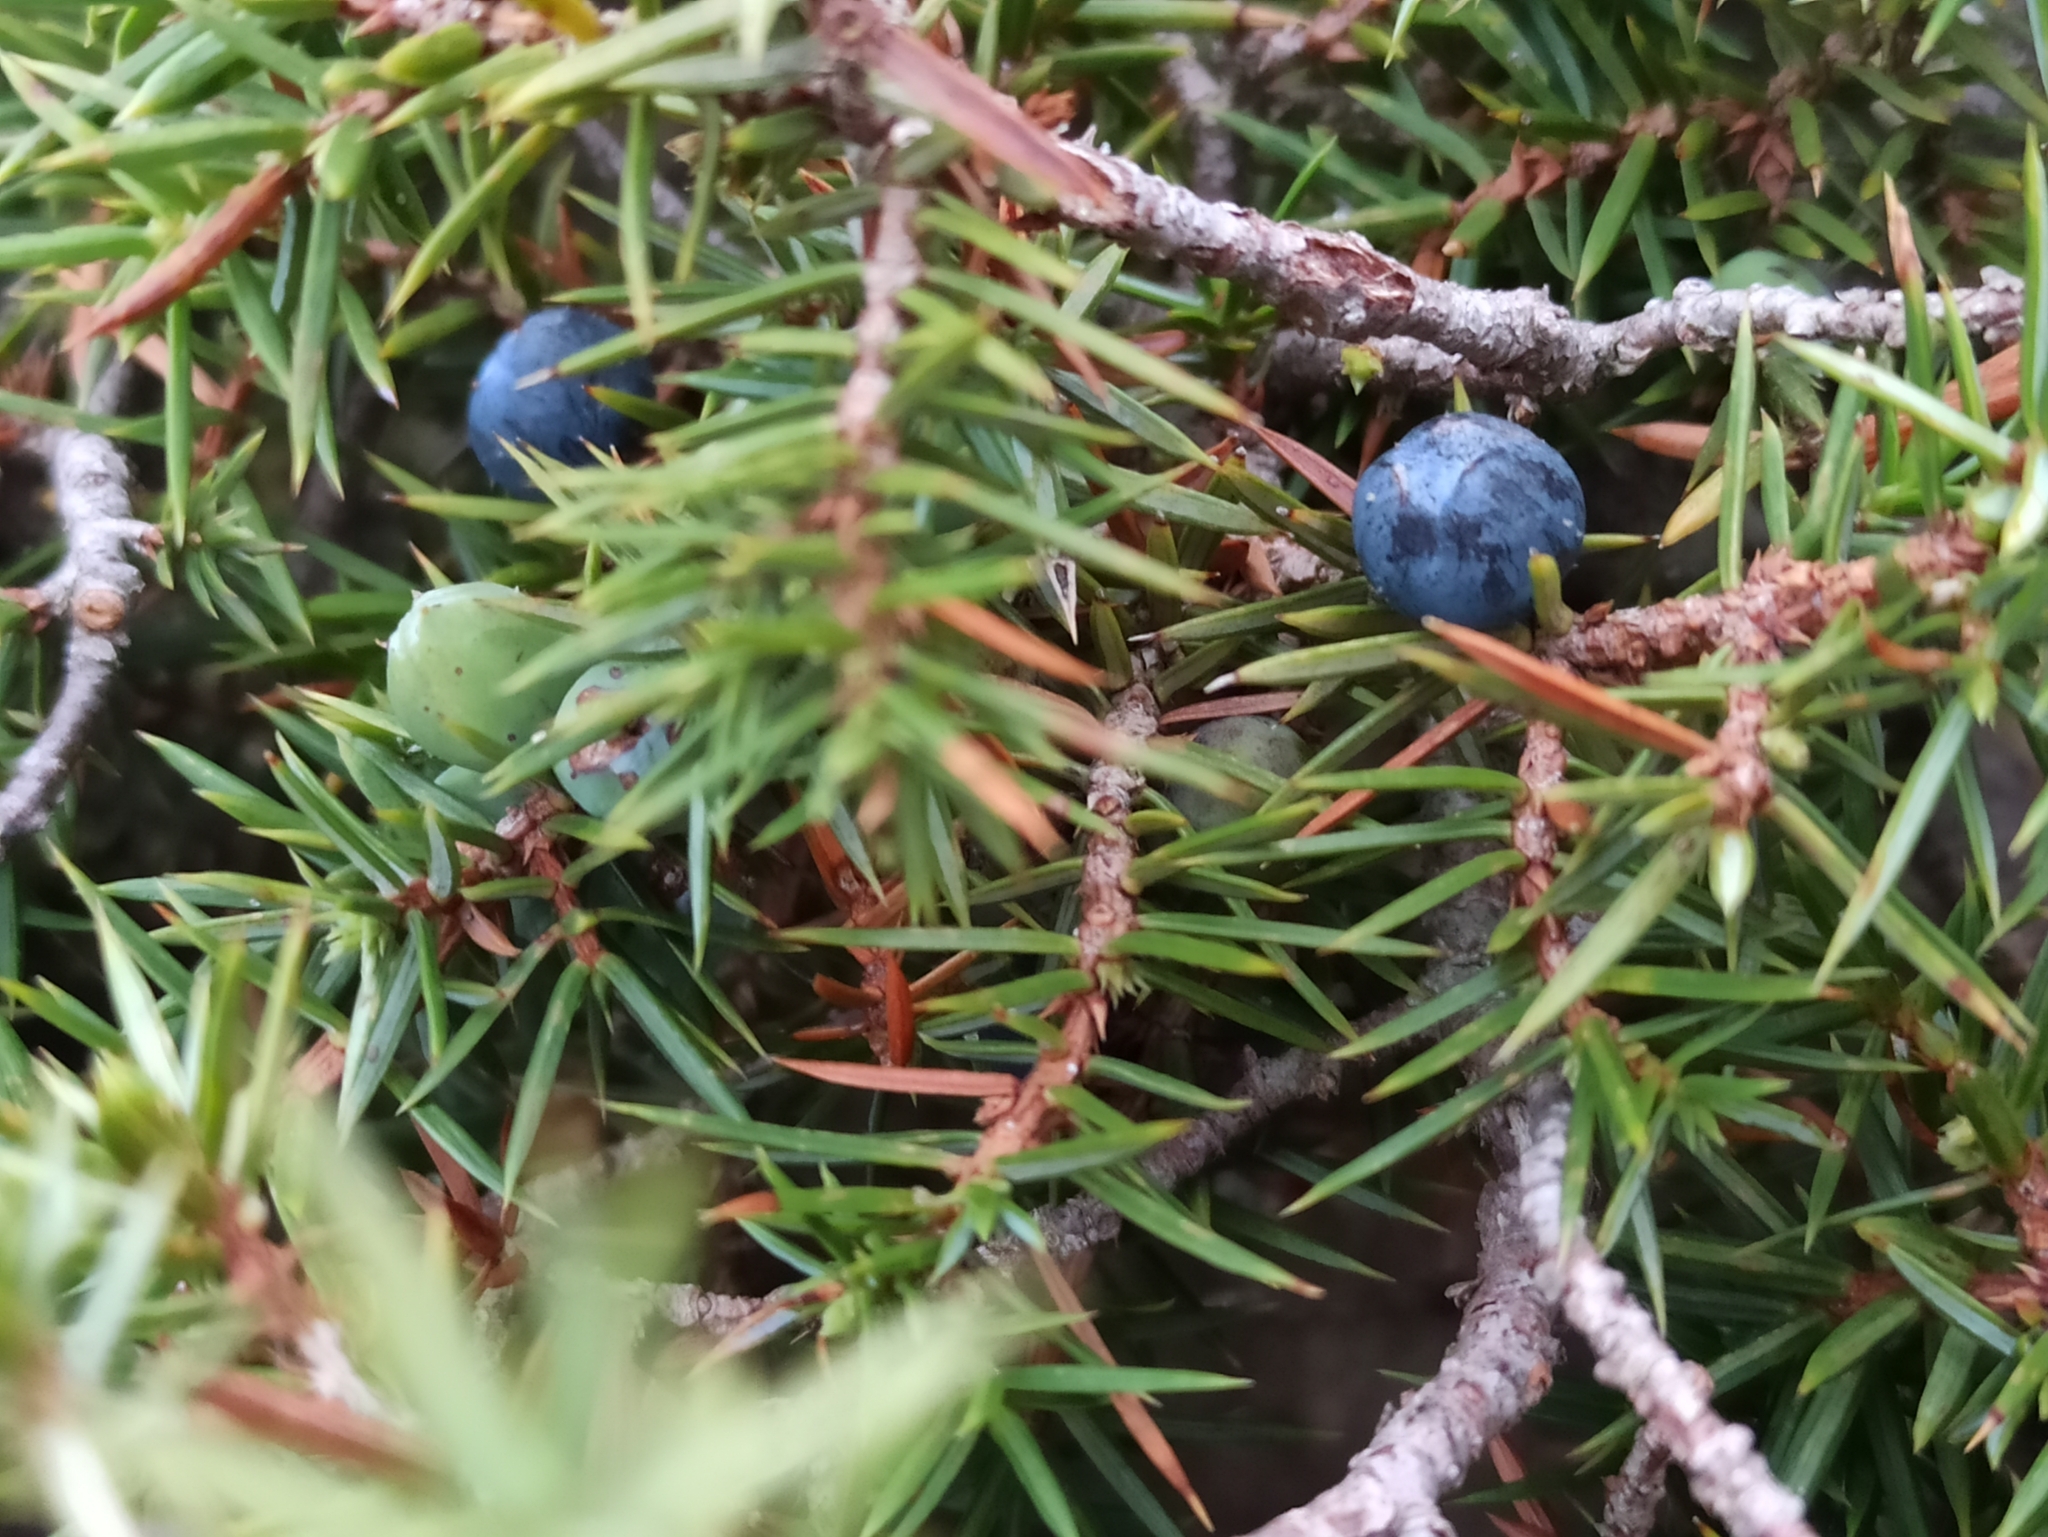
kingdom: Plantae
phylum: Tracheophyta
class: Pinopsida
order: Pinales
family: Cupressaceae
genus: Juniperus
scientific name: Juniperus communis
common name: Common juniper
